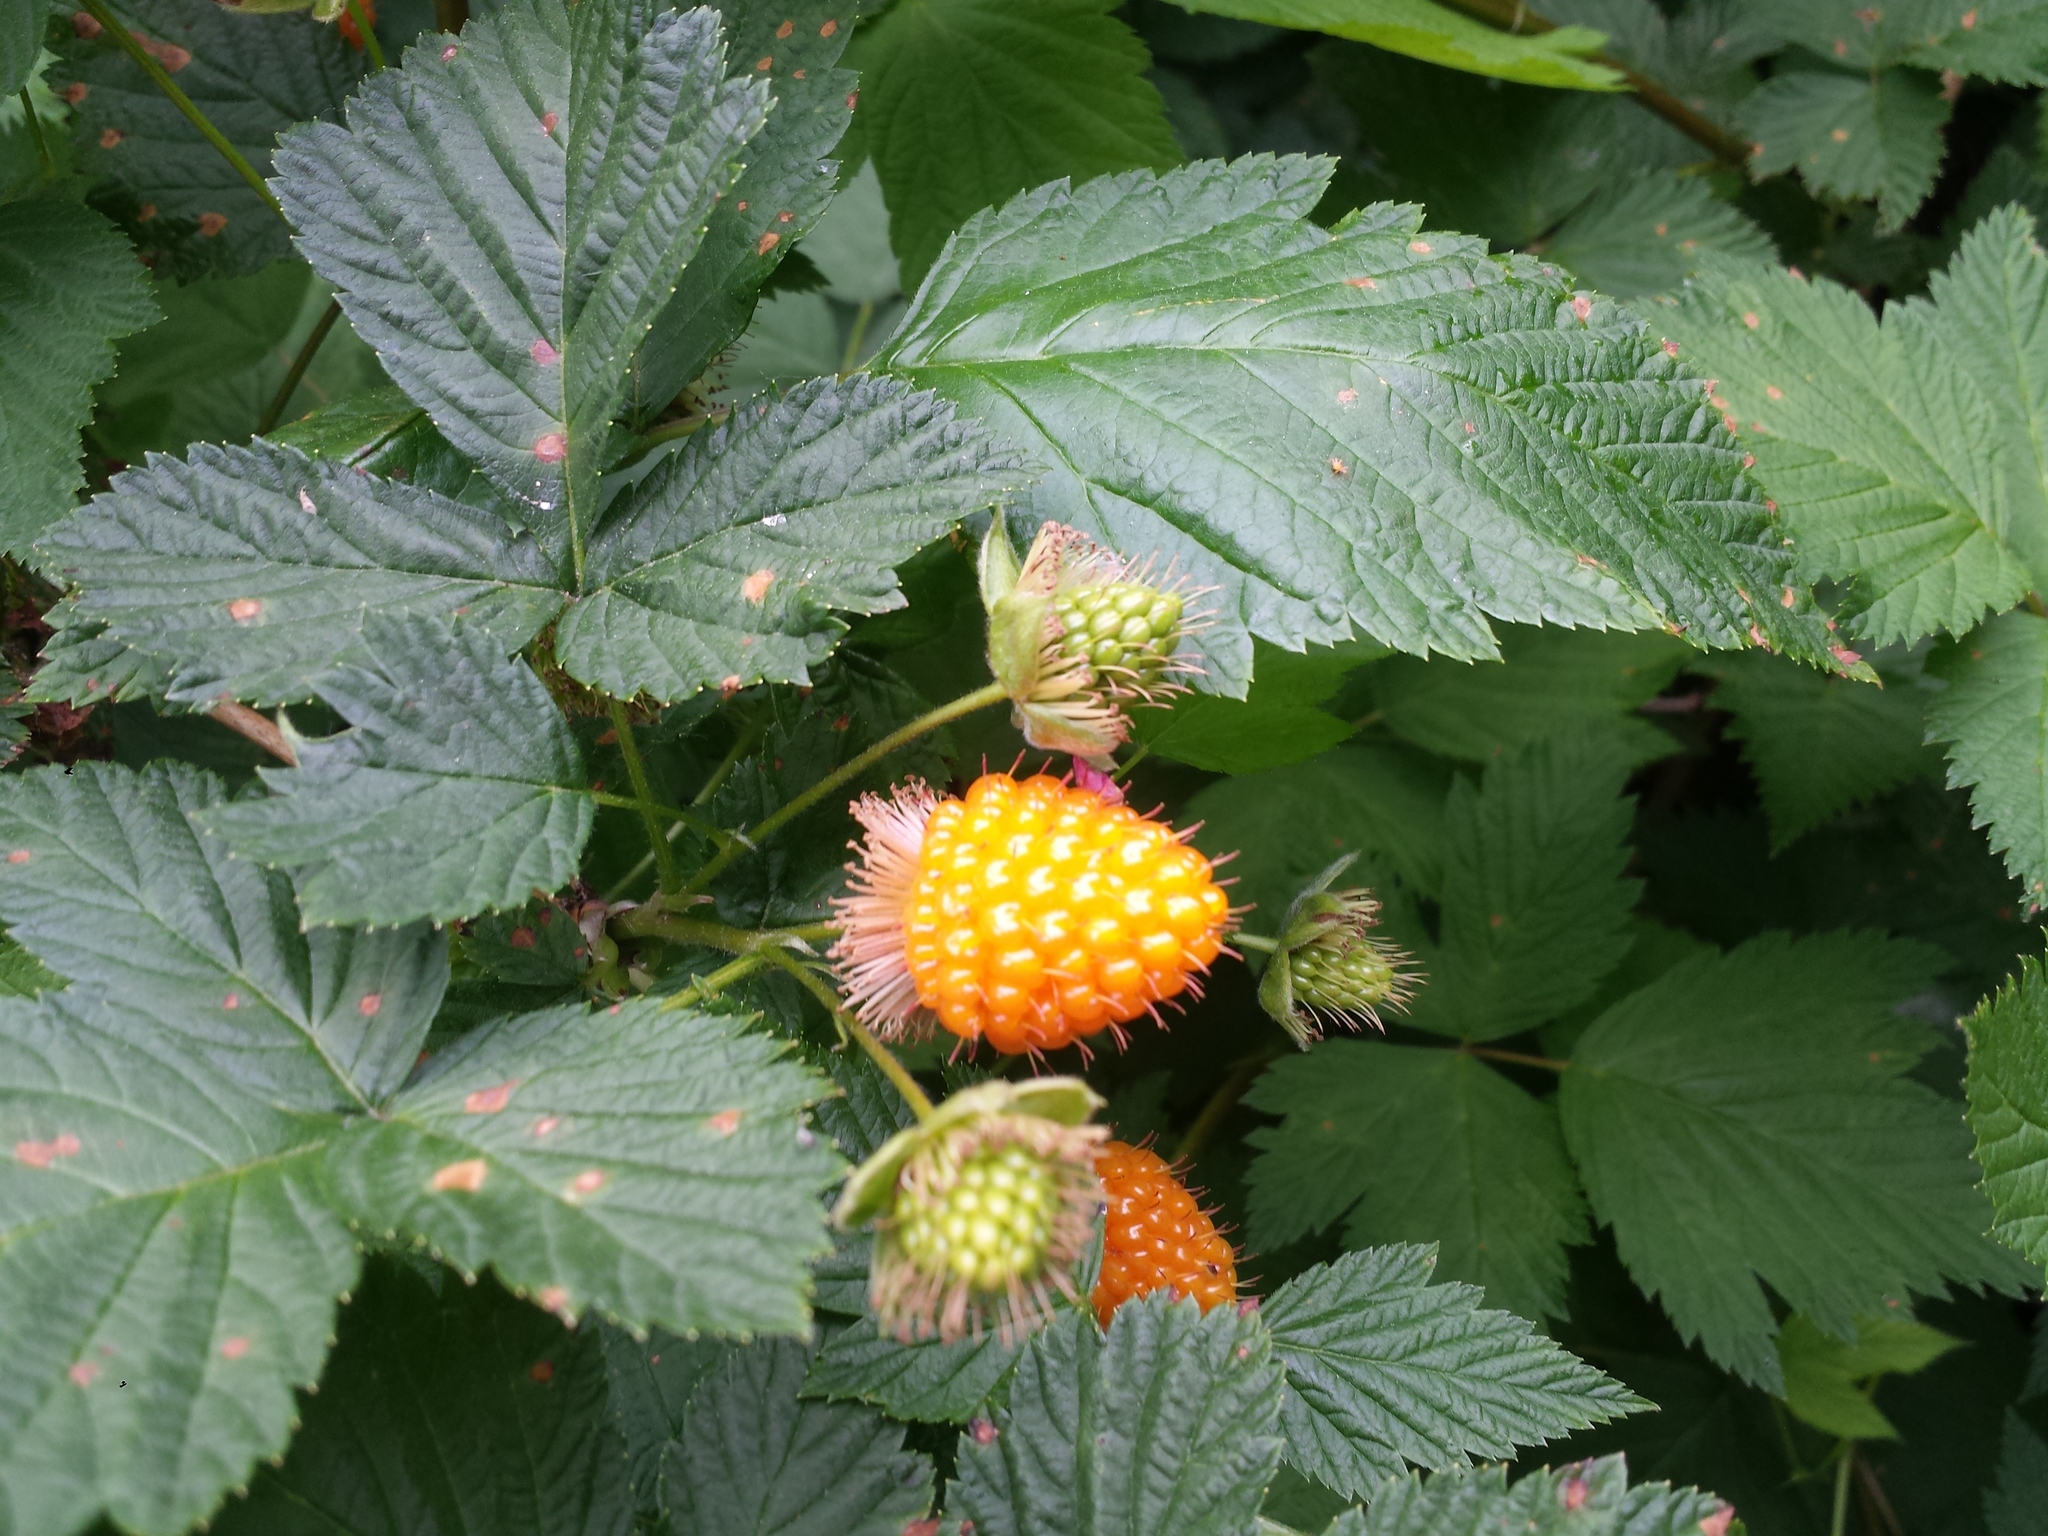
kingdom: Plantae
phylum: Tracheophyta
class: Magnoliopsida
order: Rosales
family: Rosaceae
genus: Rubus
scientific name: Rubus spectabilis
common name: Salmonberry
